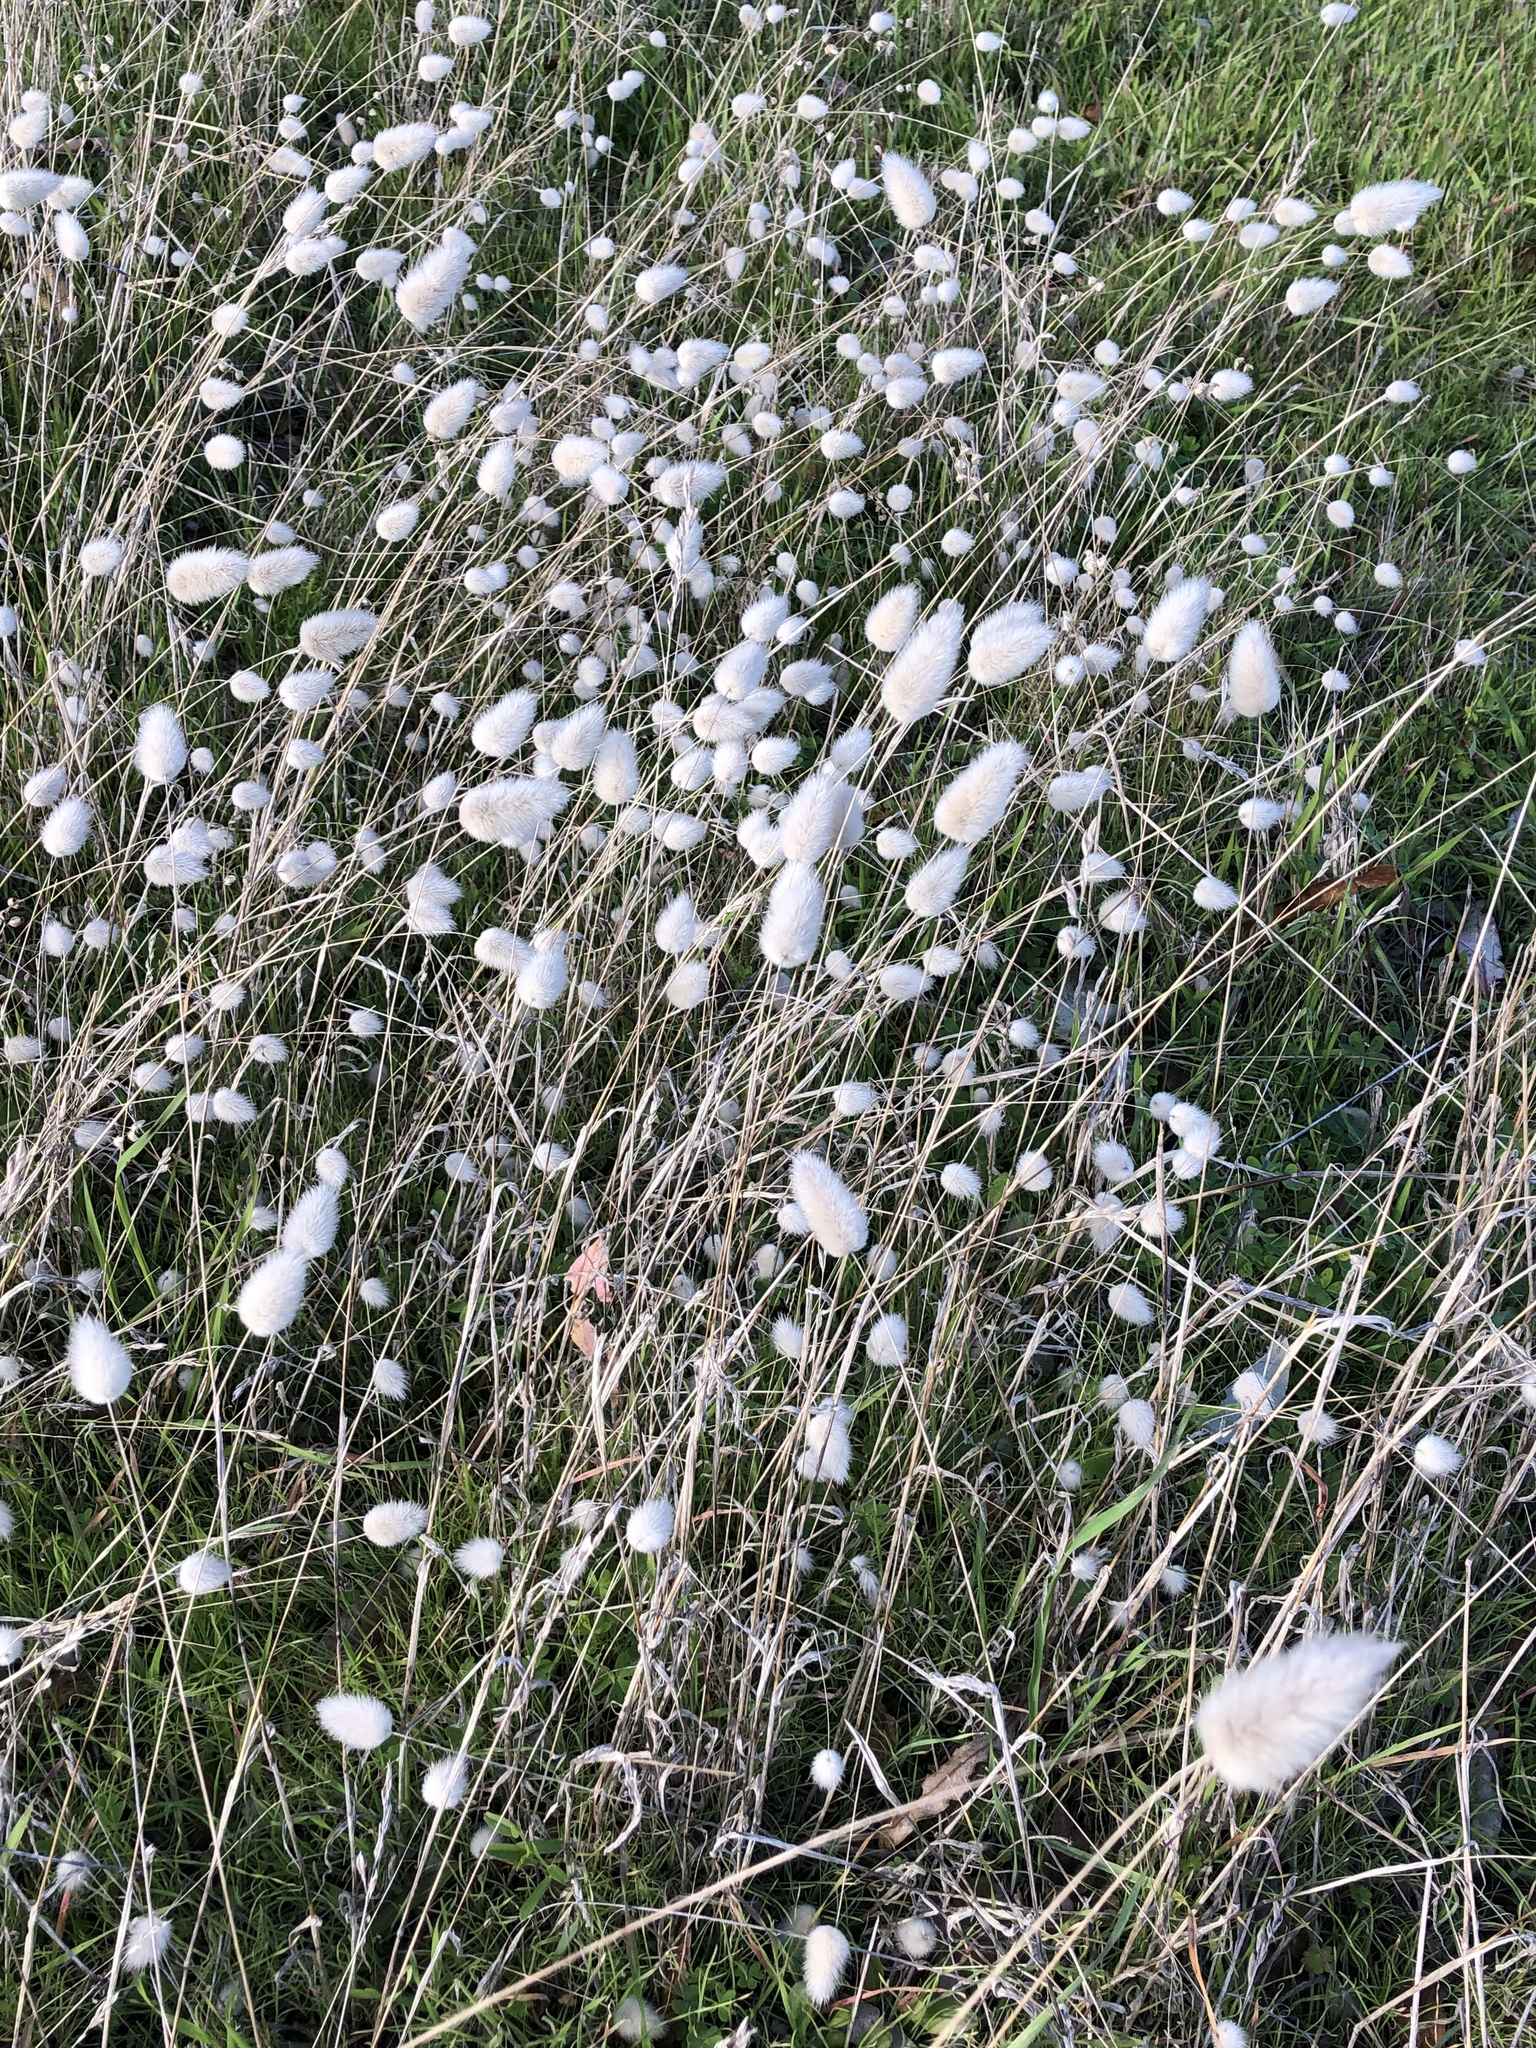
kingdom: Plantae
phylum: Tracheophyta
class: Liliopsida
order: Poales
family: Poaceae
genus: Lagurus
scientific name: Lagurus ovatus
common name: Hare's-tail
